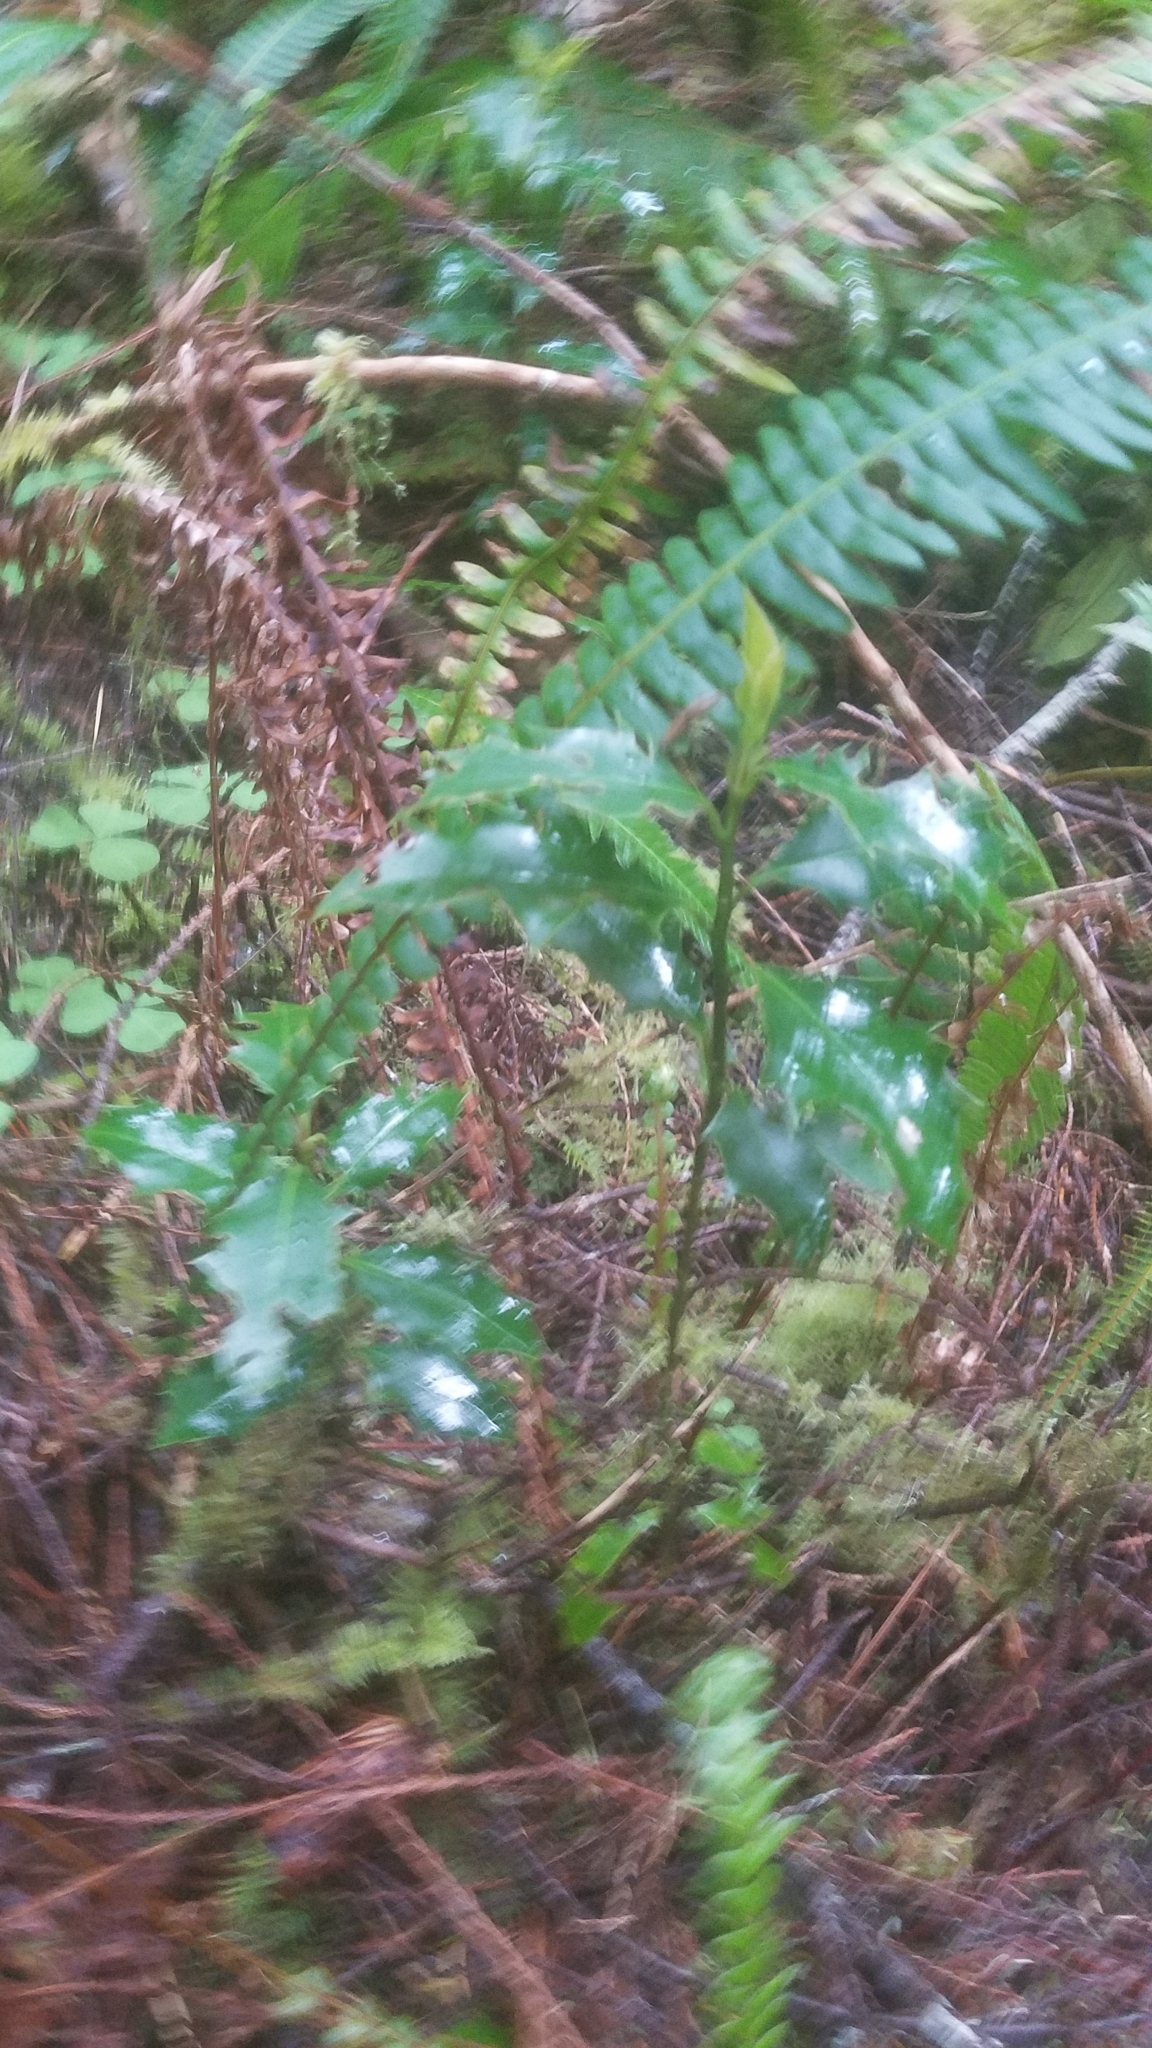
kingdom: Plantae
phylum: Tracheophyta
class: Magnoliopsida
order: Aquifoliales
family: Aquifoliaceae
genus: Ilex
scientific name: Ilex aquifolium
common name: English holly
